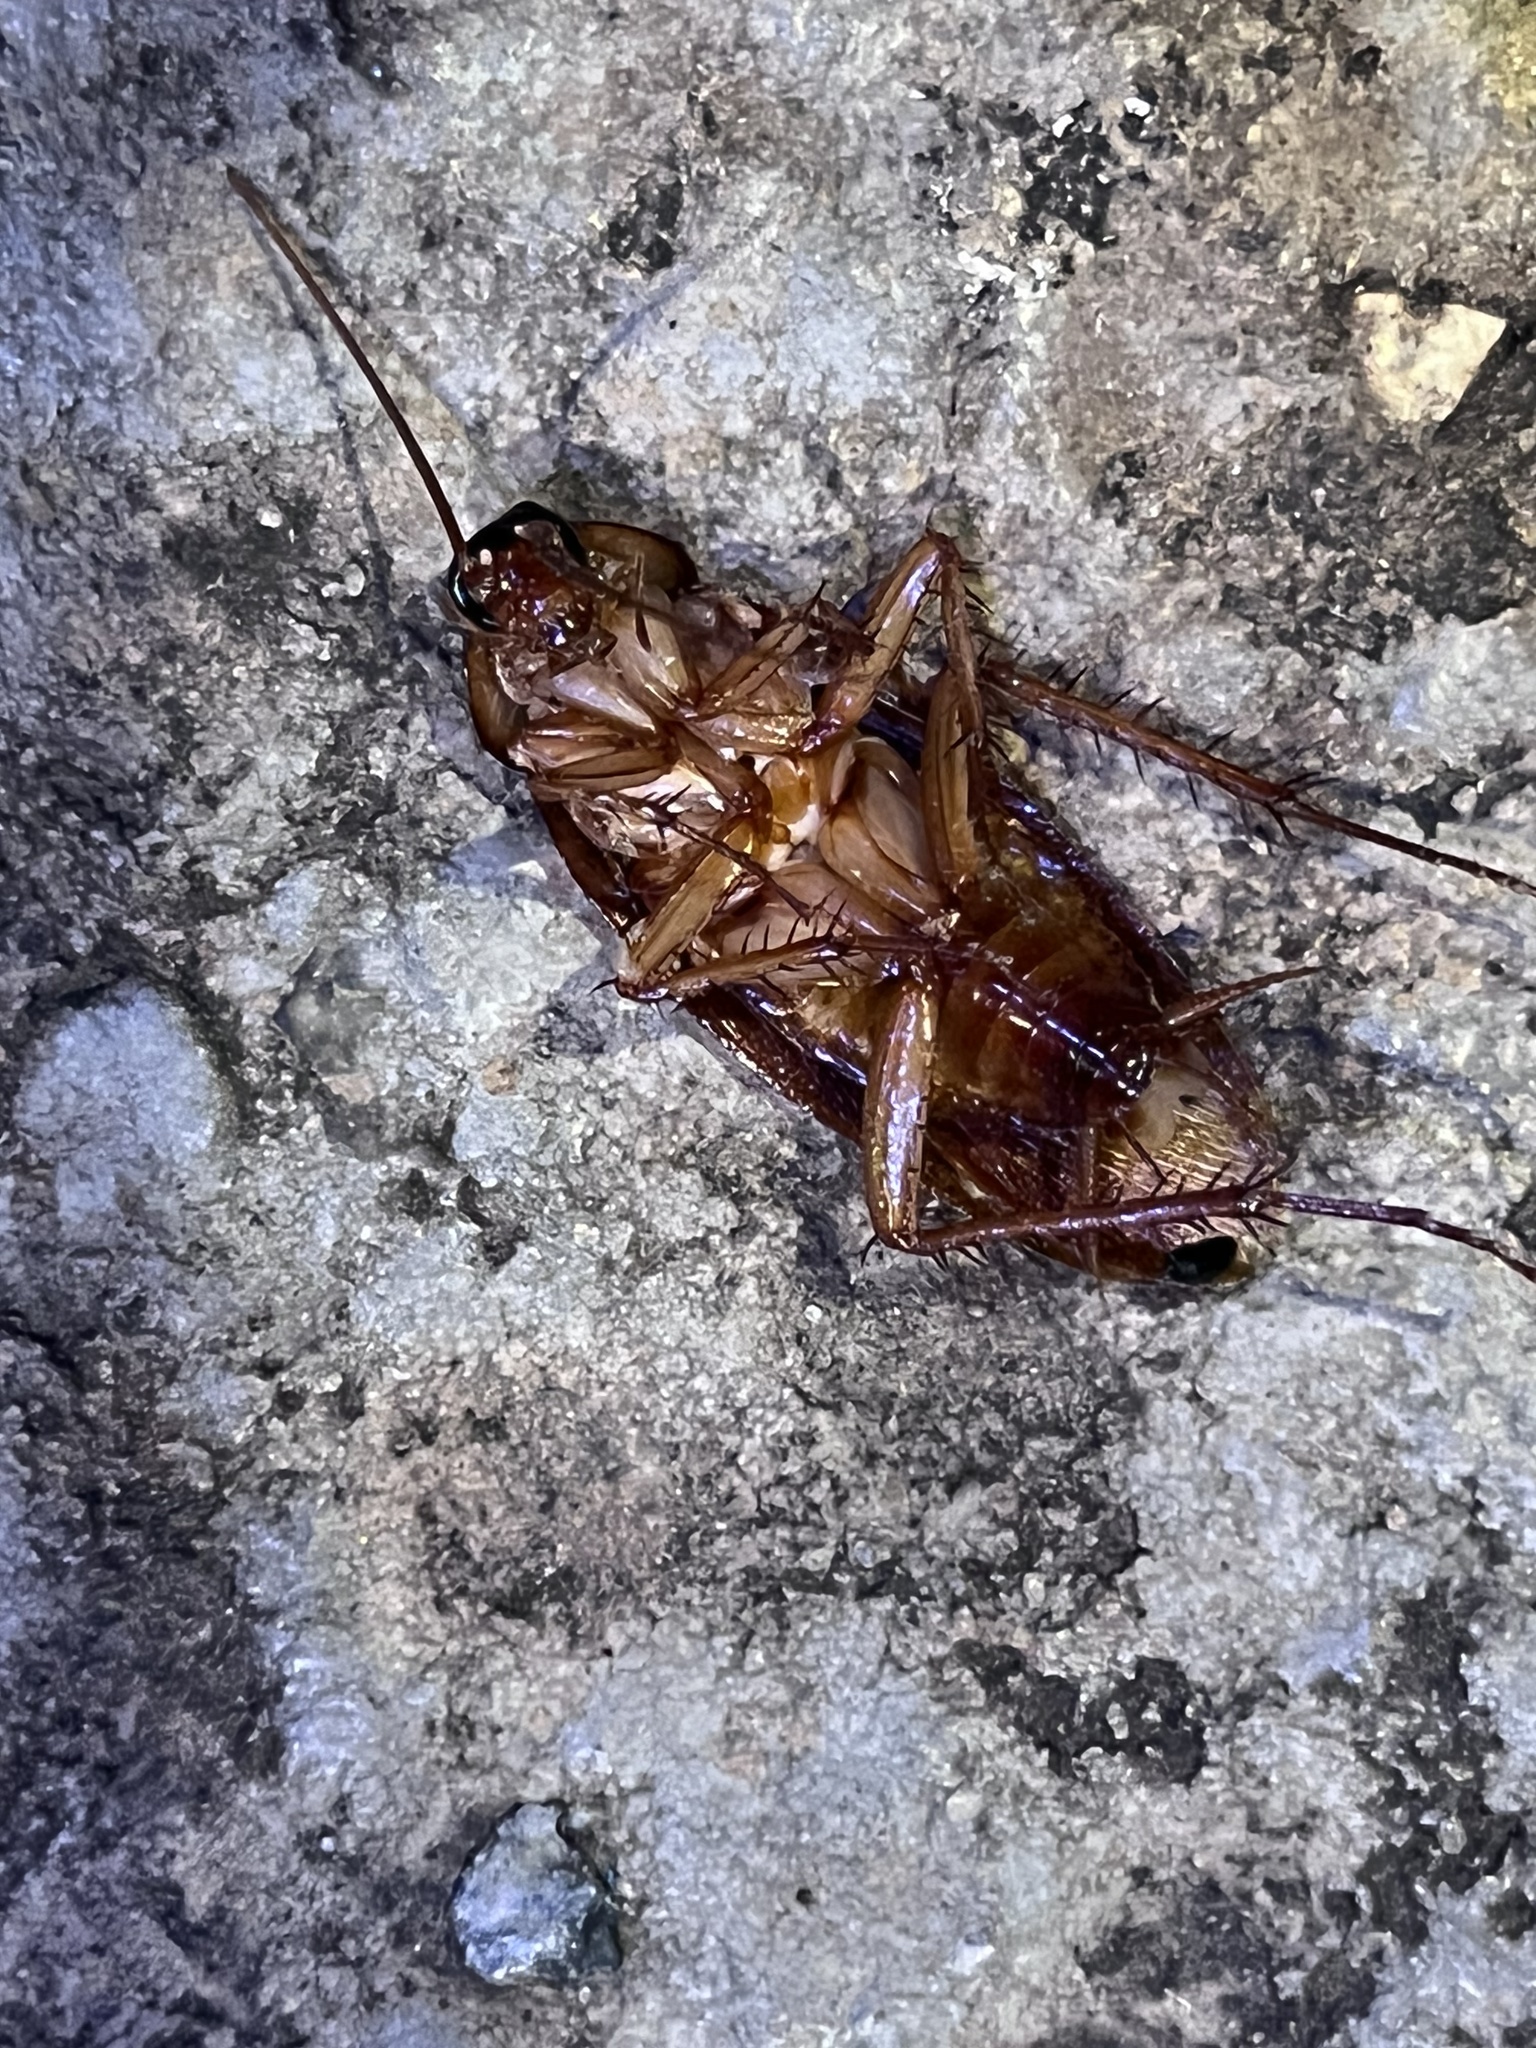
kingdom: Animalia
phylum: Arthropoda
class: Insecta
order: Blattodea
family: Blattidae
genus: Periplaneta
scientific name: Periplaneta americana
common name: American cockroach
